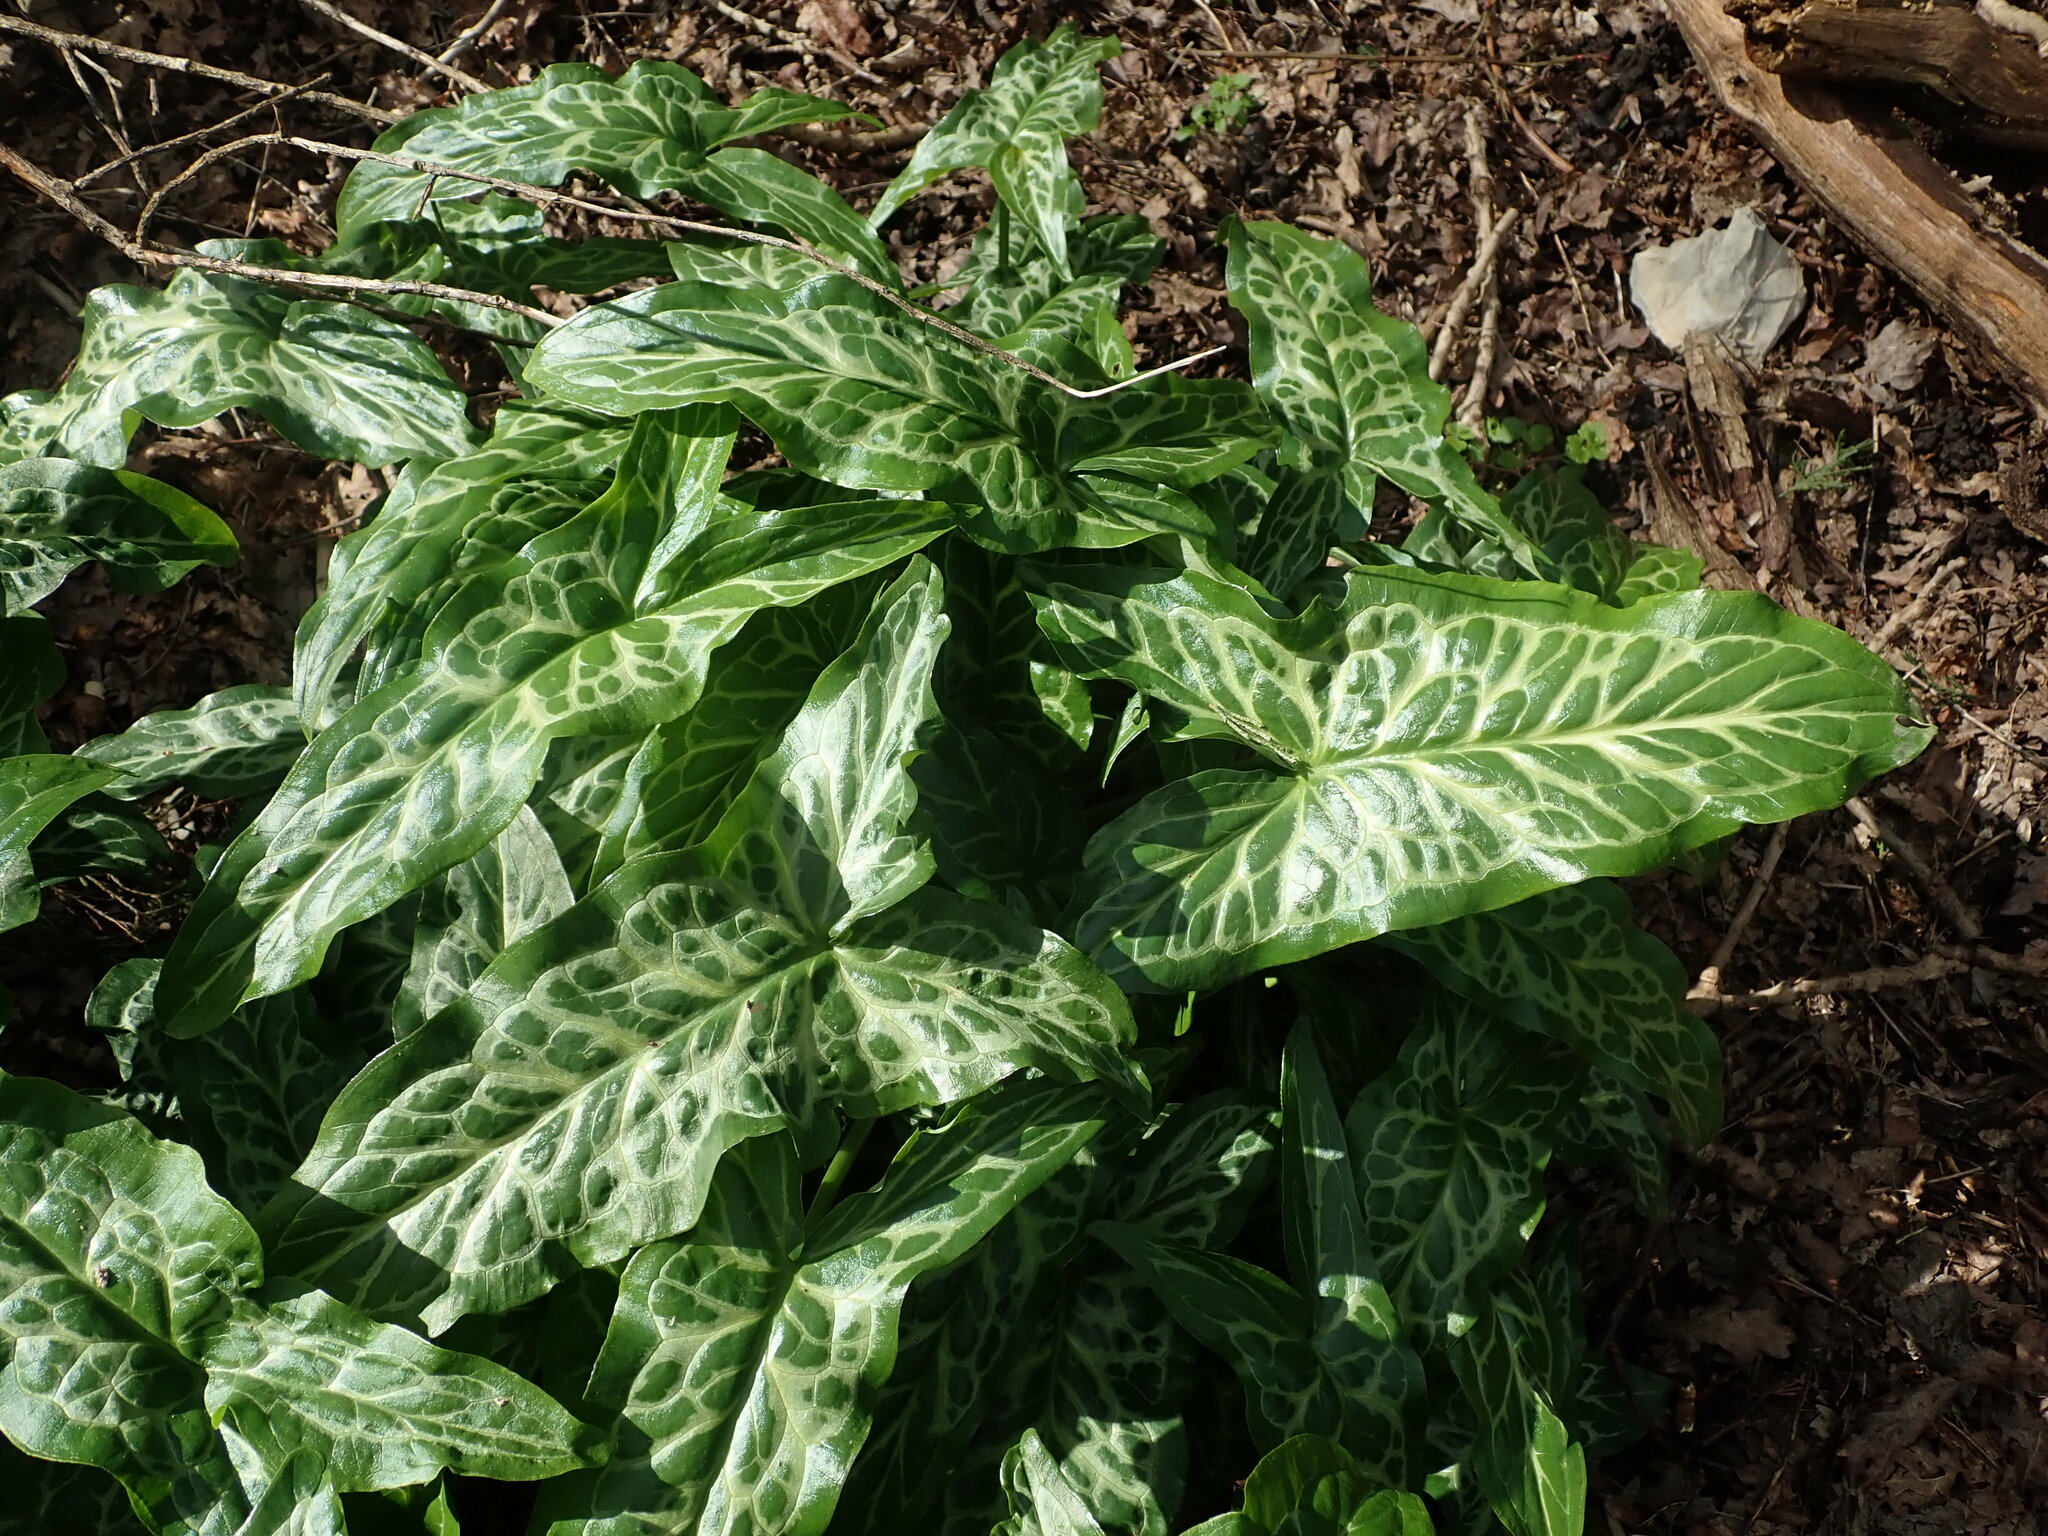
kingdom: Plantae
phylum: Tracheophyta
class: Liliopsida
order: Alismatales
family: Araceae
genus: Arum
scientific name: Arum italicum
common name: Italian lords-and-ladies
